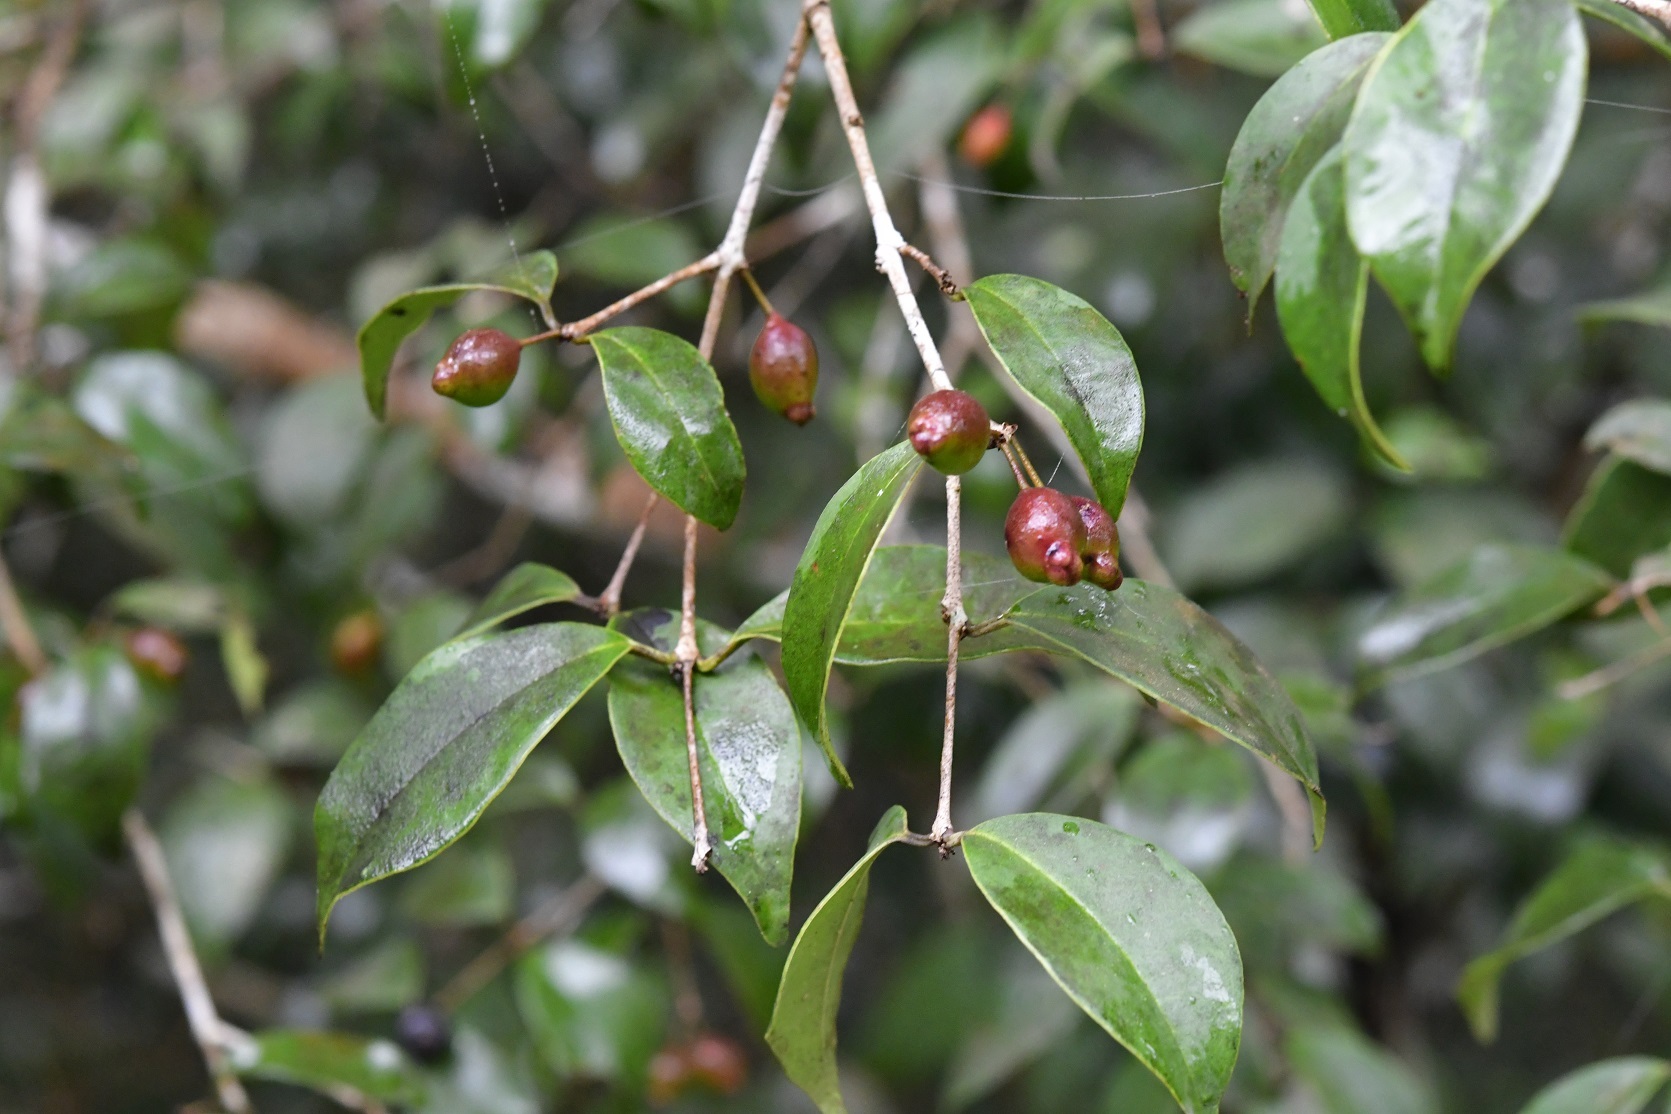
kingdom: Plantae
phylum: Tracheophyta
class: Magnoliopsida
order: Myrtales
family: Myrtaceae
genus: Eugenia
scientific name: Eugenia trikii
